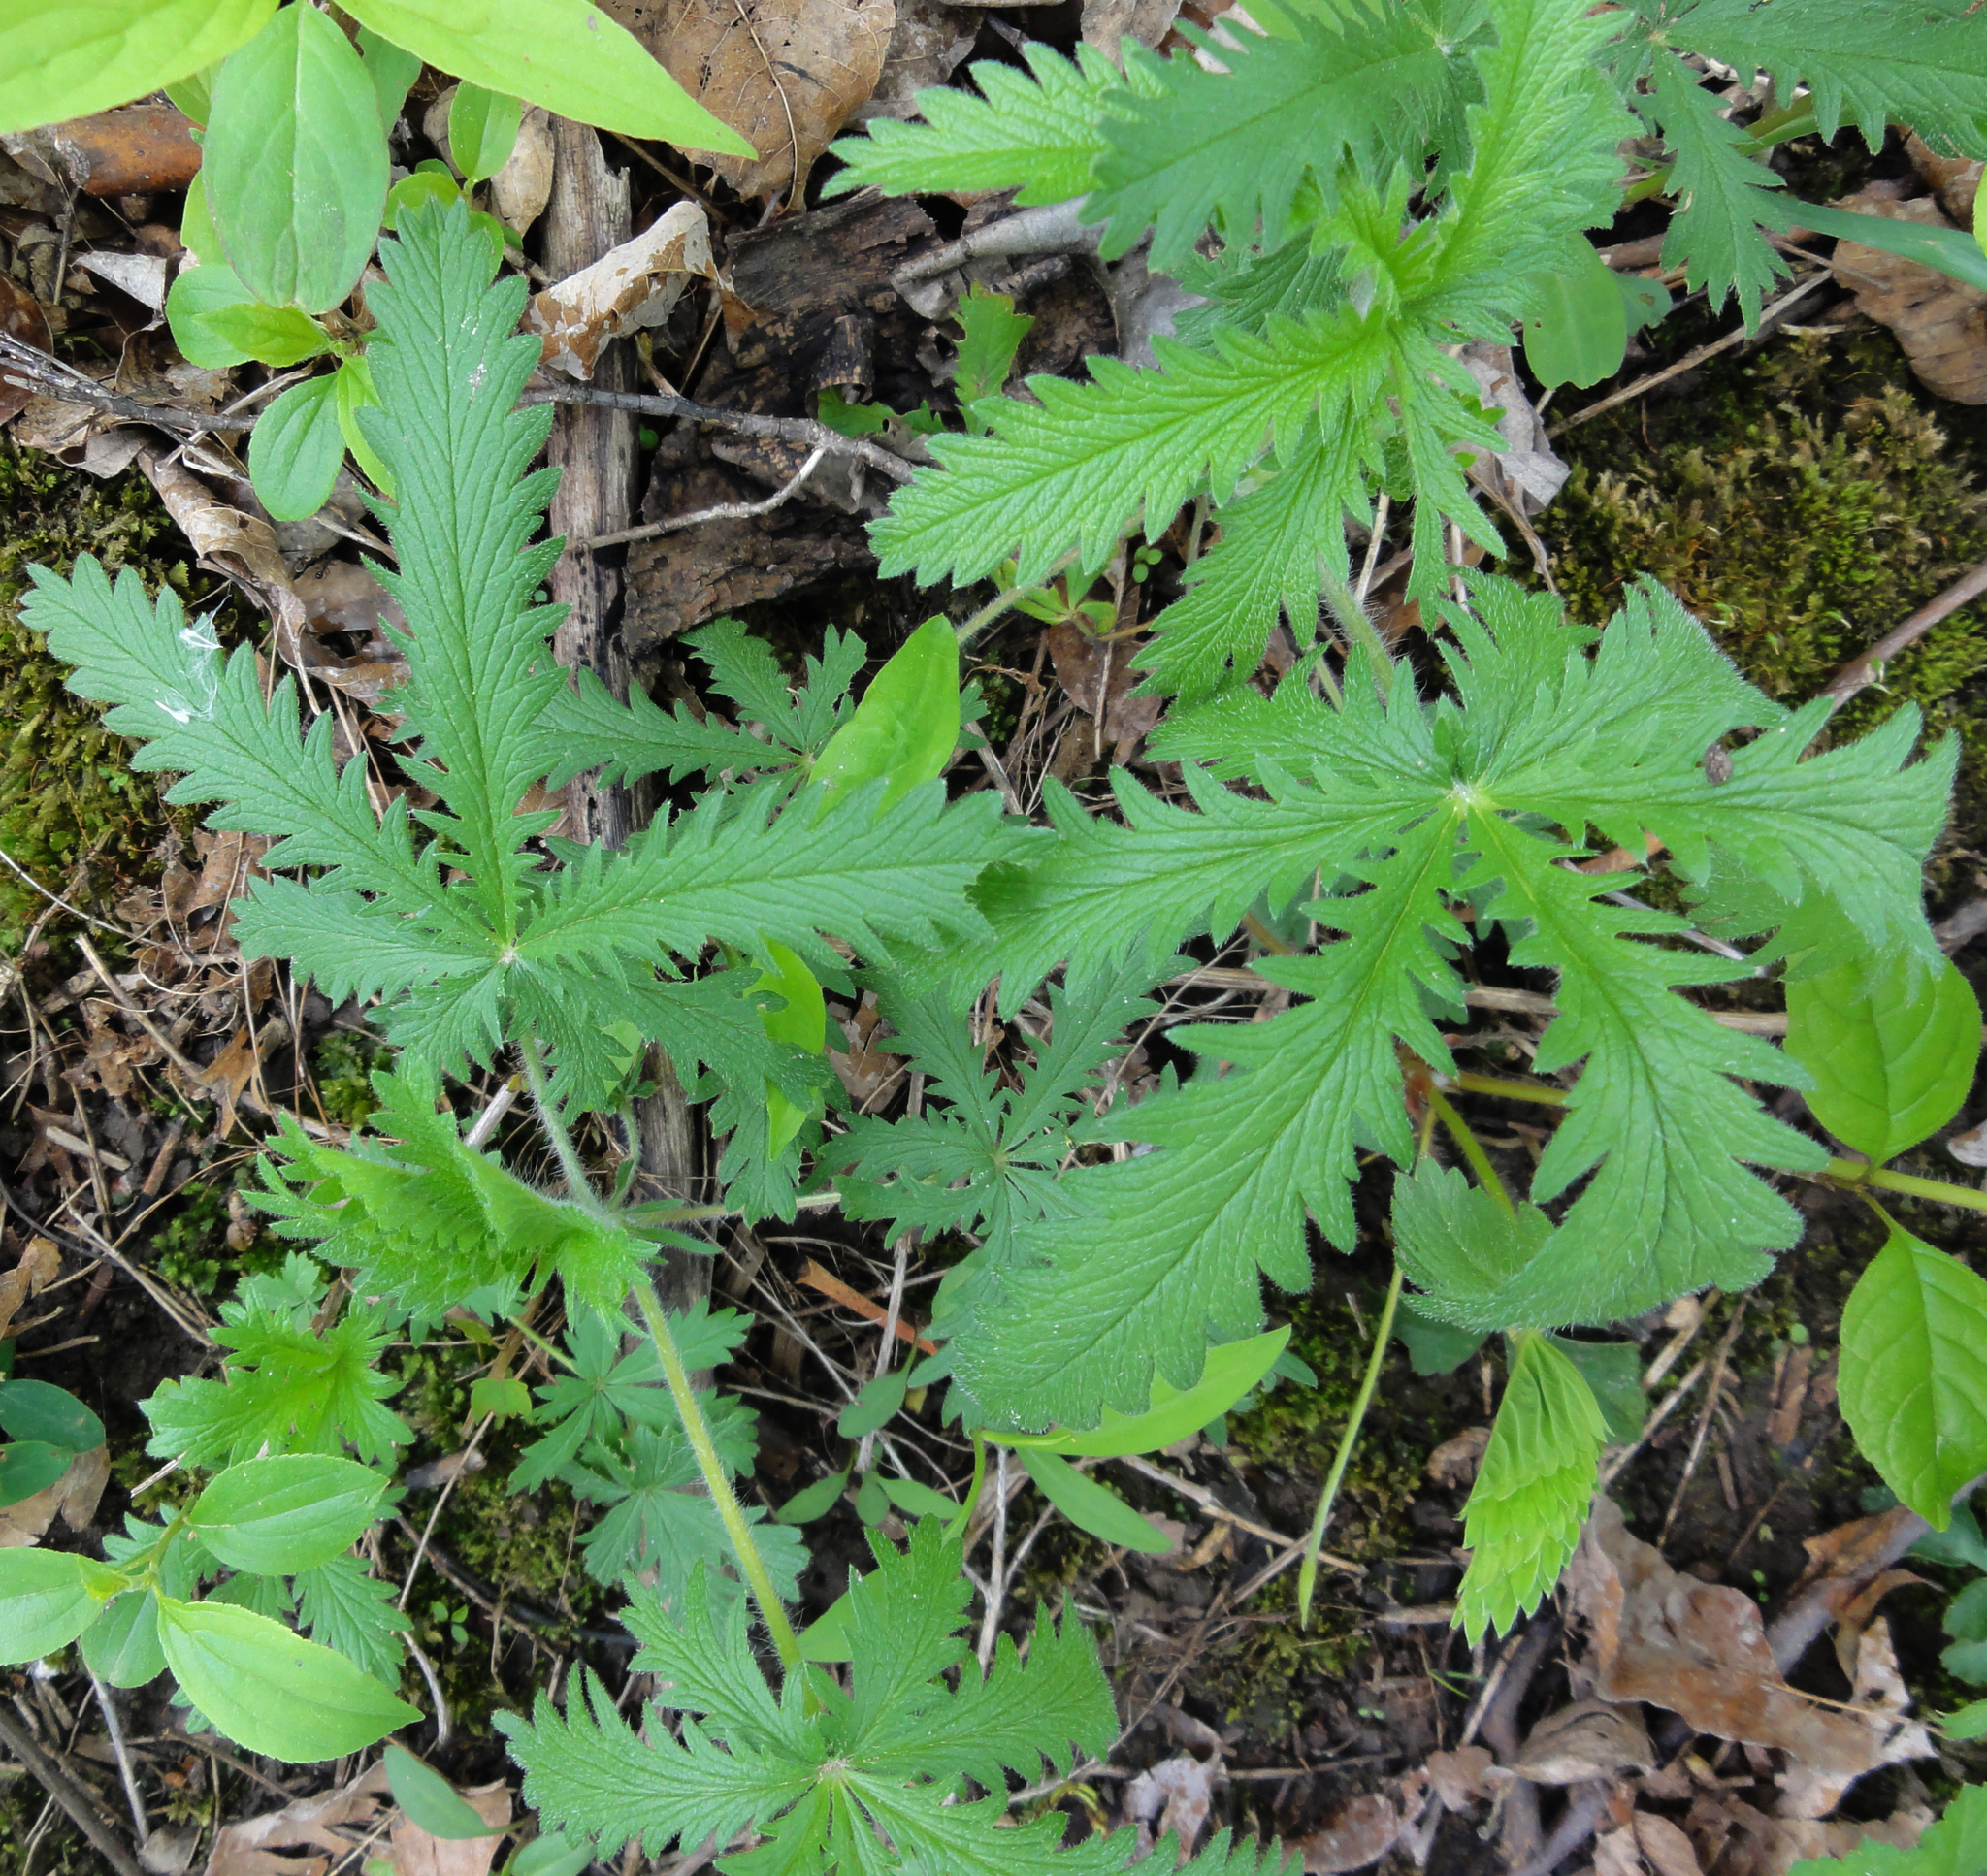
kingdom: Plantae
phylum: Tracheophyta
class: Magnoliopsida
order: Rosales
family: Rosaceae
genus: Potentilla
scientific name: Potentilla recta
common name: Sulphur cinquefoil
